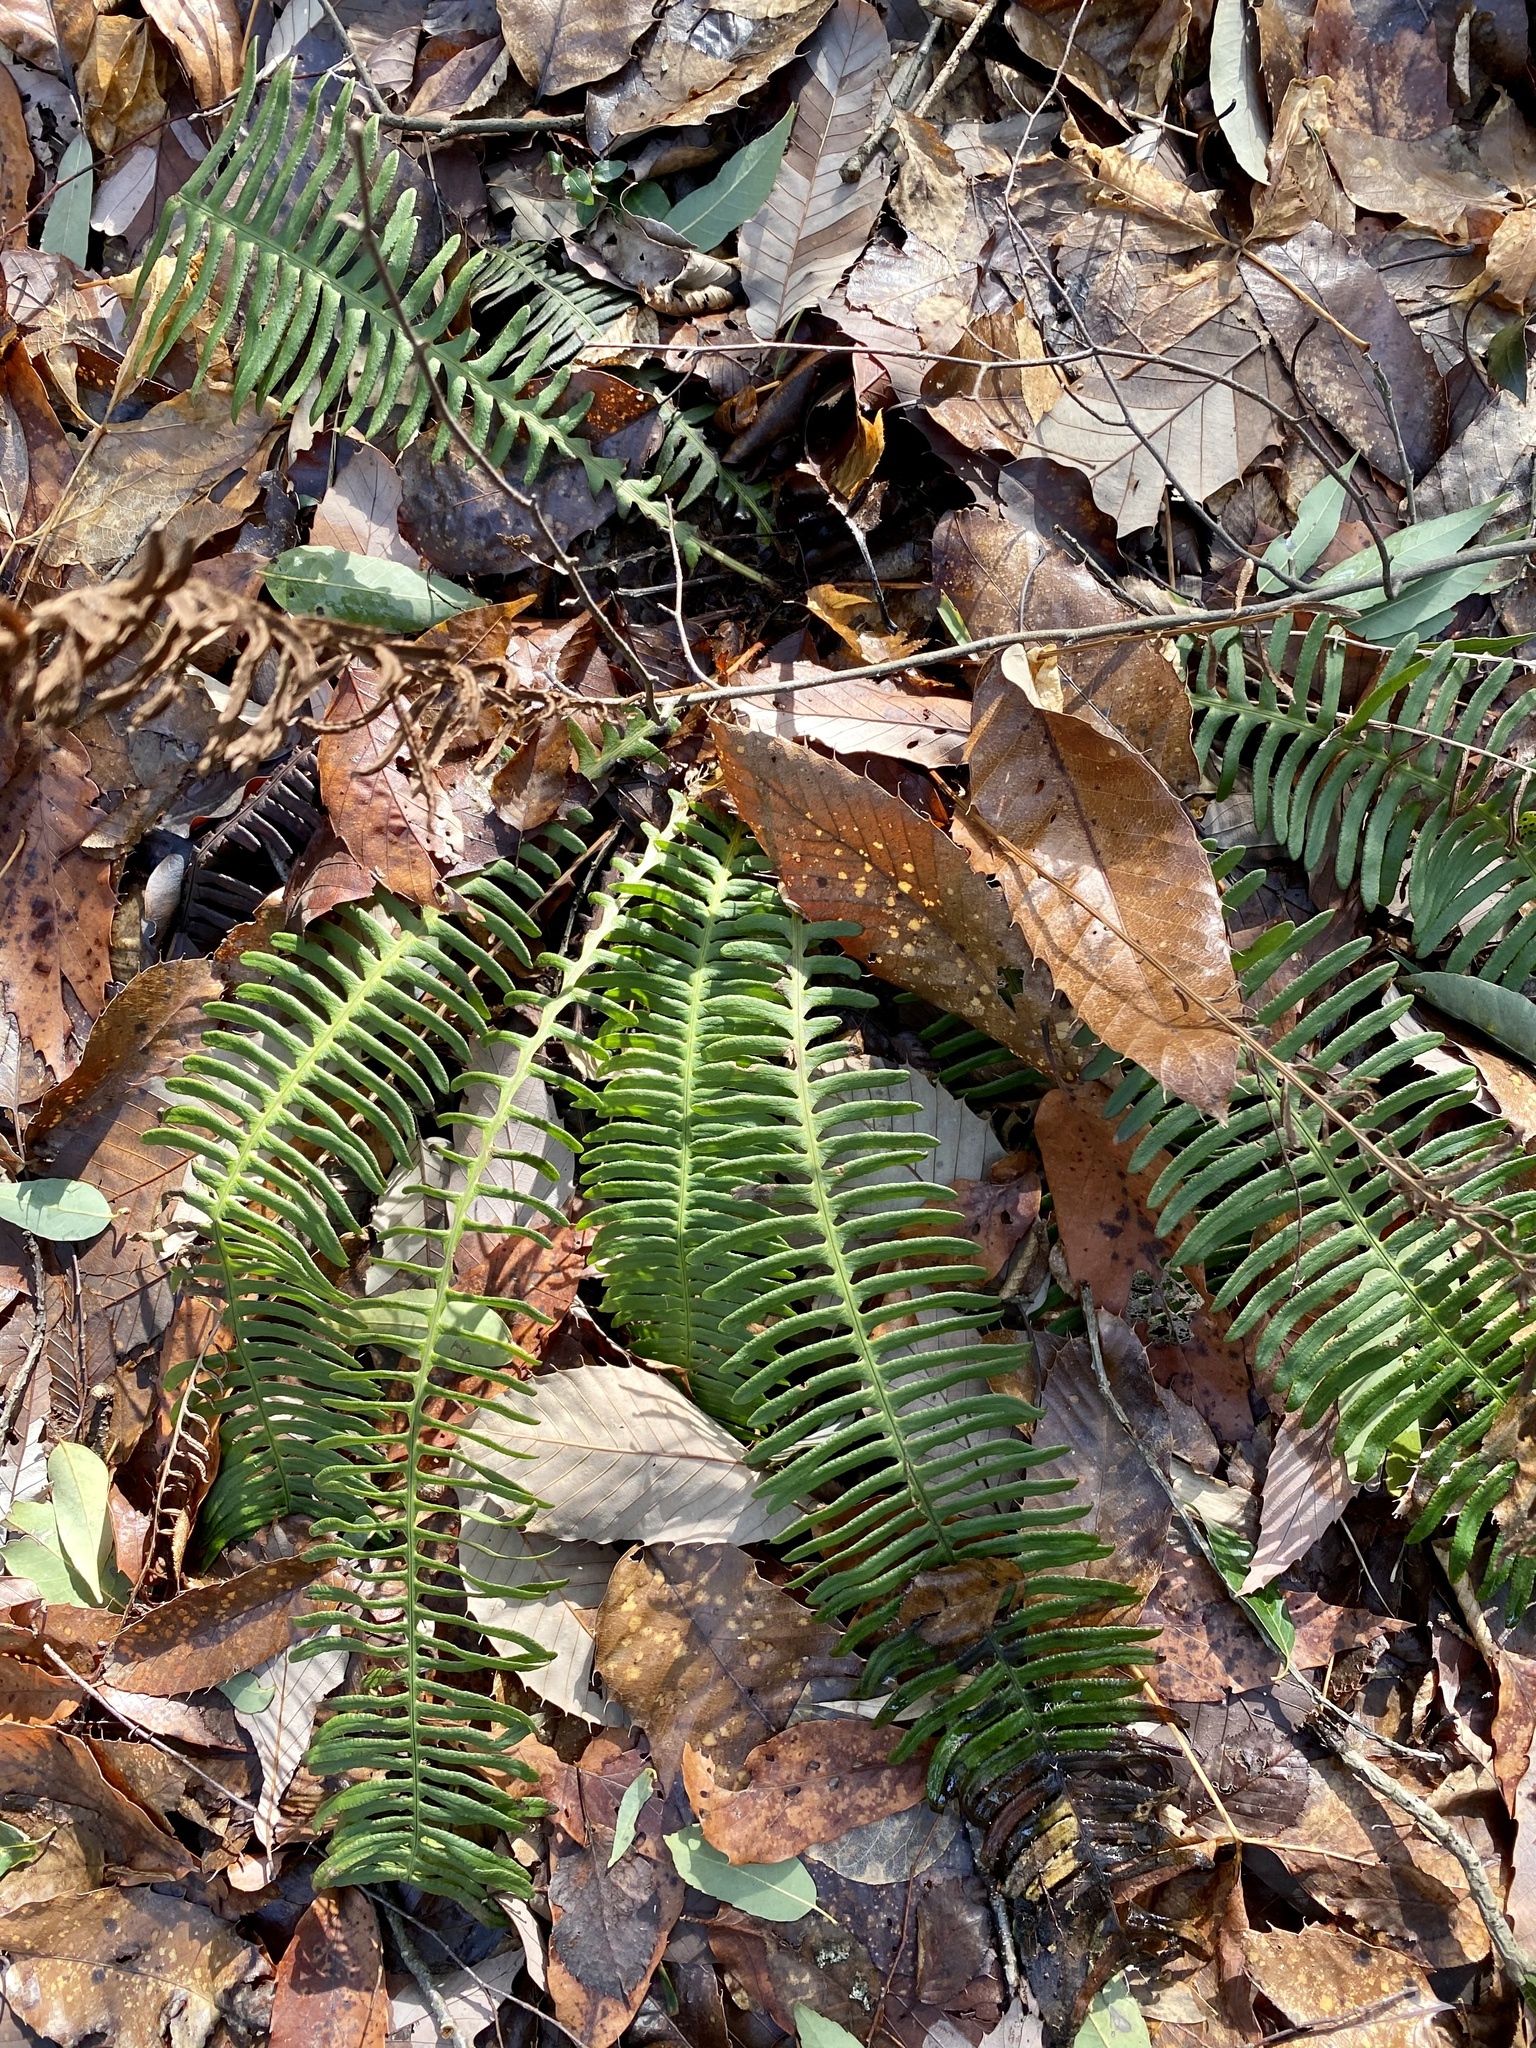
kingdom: Plantae
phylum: Tracheophyta
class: Polypodiopsida
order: Polypodiales
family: Blechnaceae
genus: Spicantopsis
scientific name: Spicantopsis niponica
